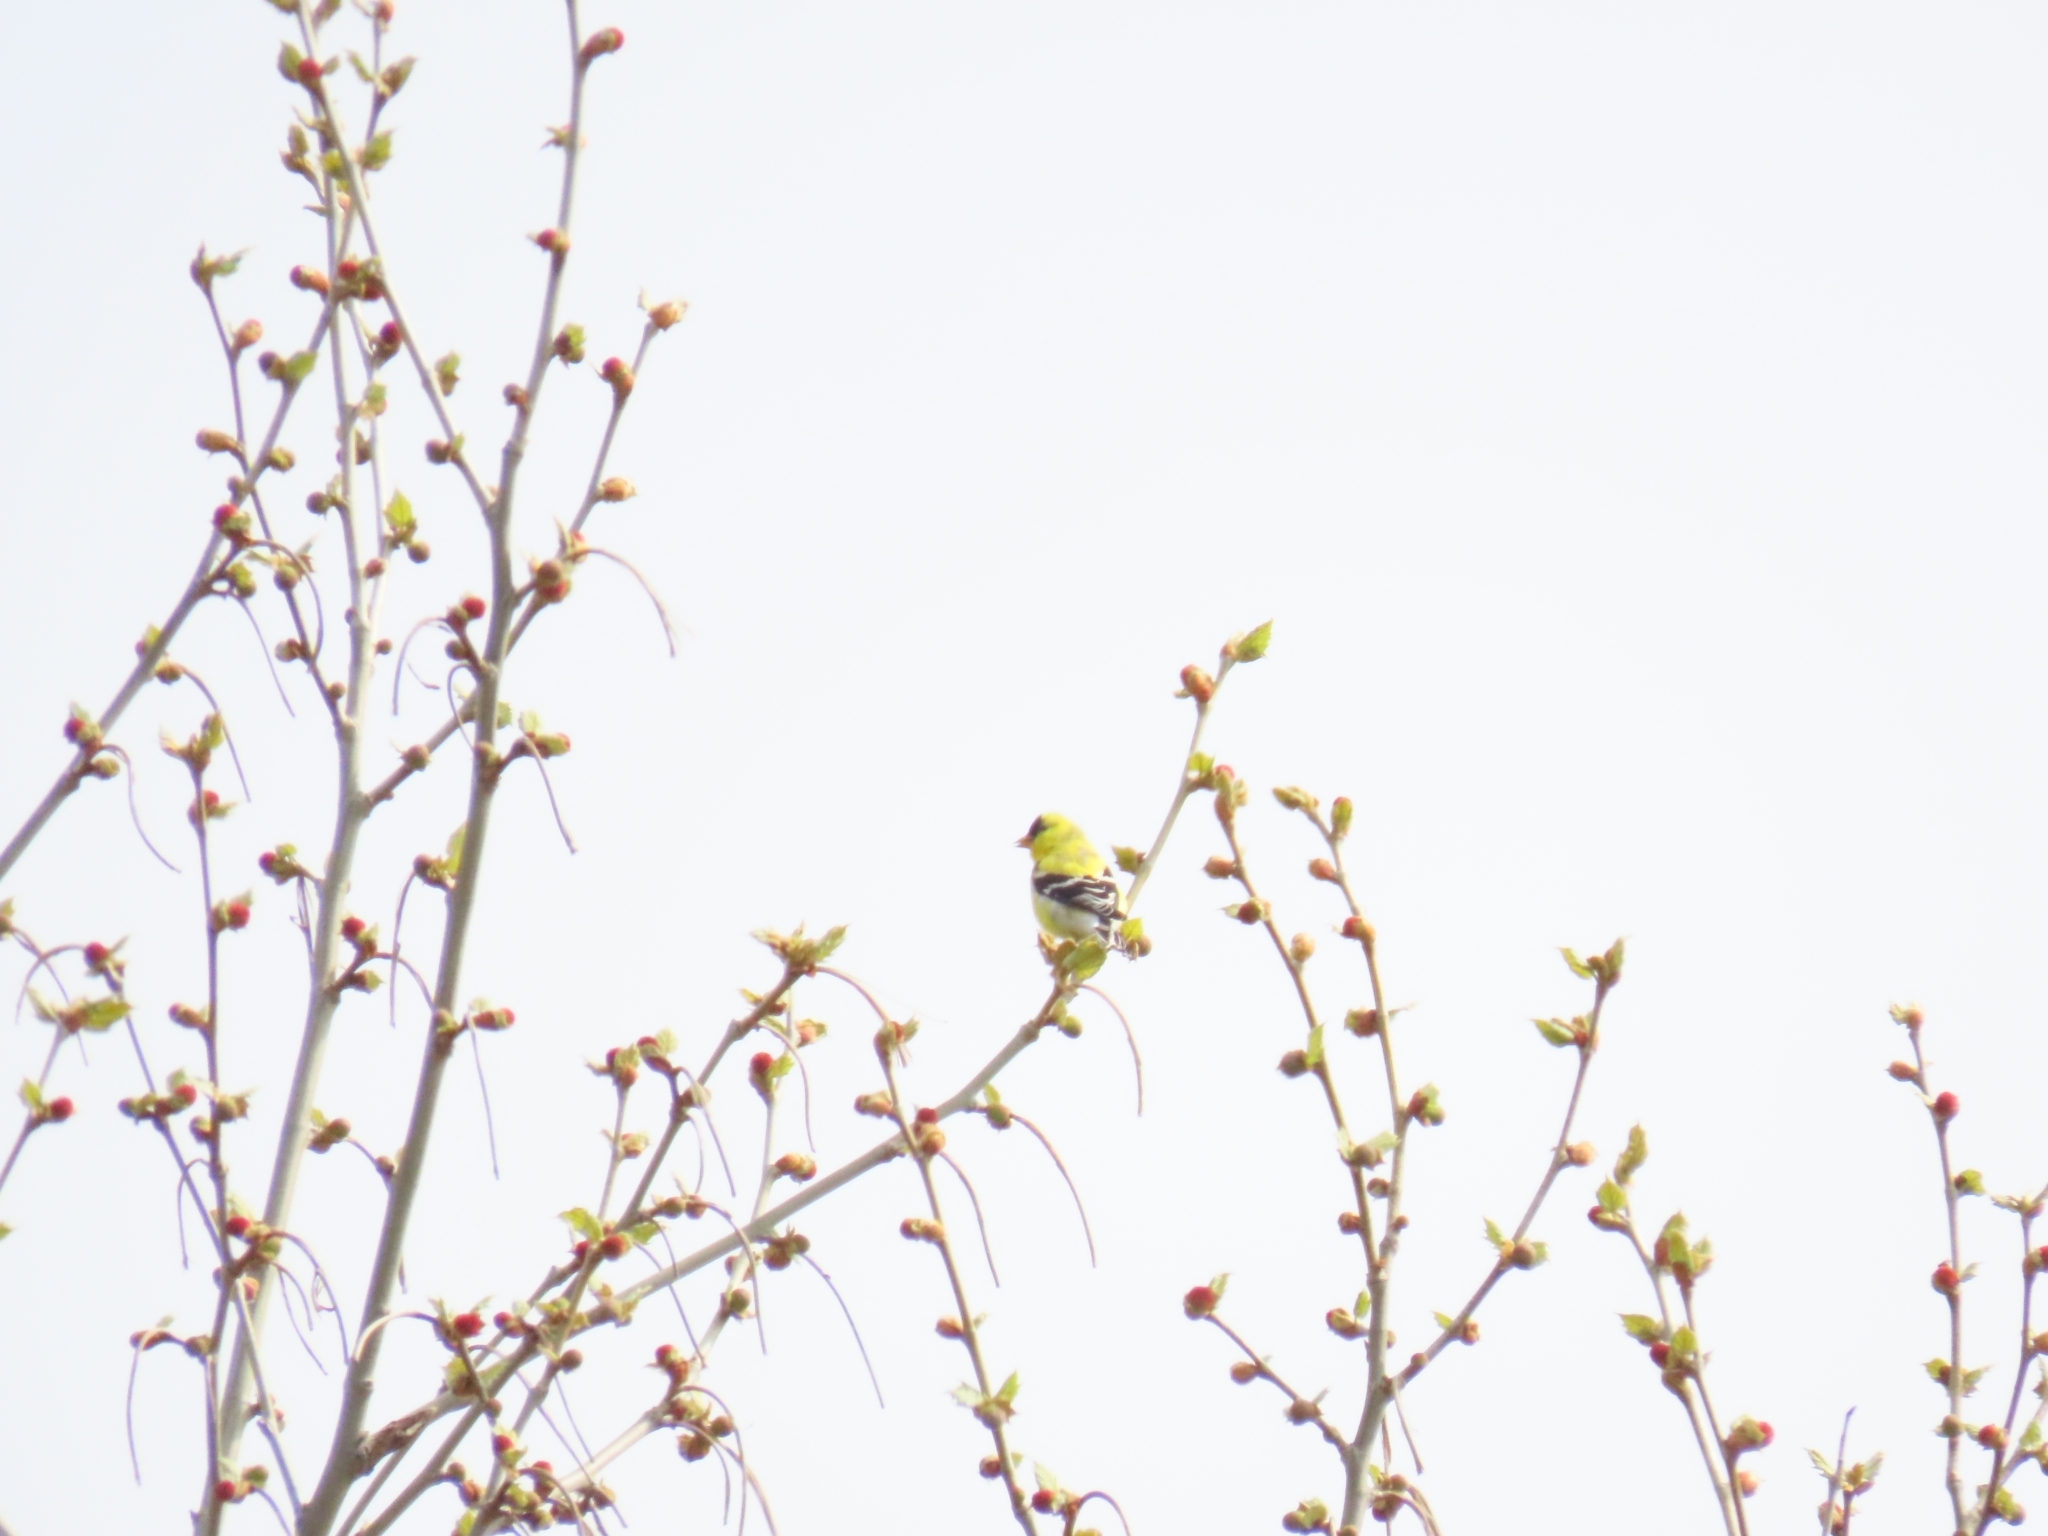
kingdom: Animalia
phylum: Chordata
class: Aves
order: Passeriformes
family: Fringillidae
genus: Spinus
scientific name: Spinus tristis
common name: American goldfinch
